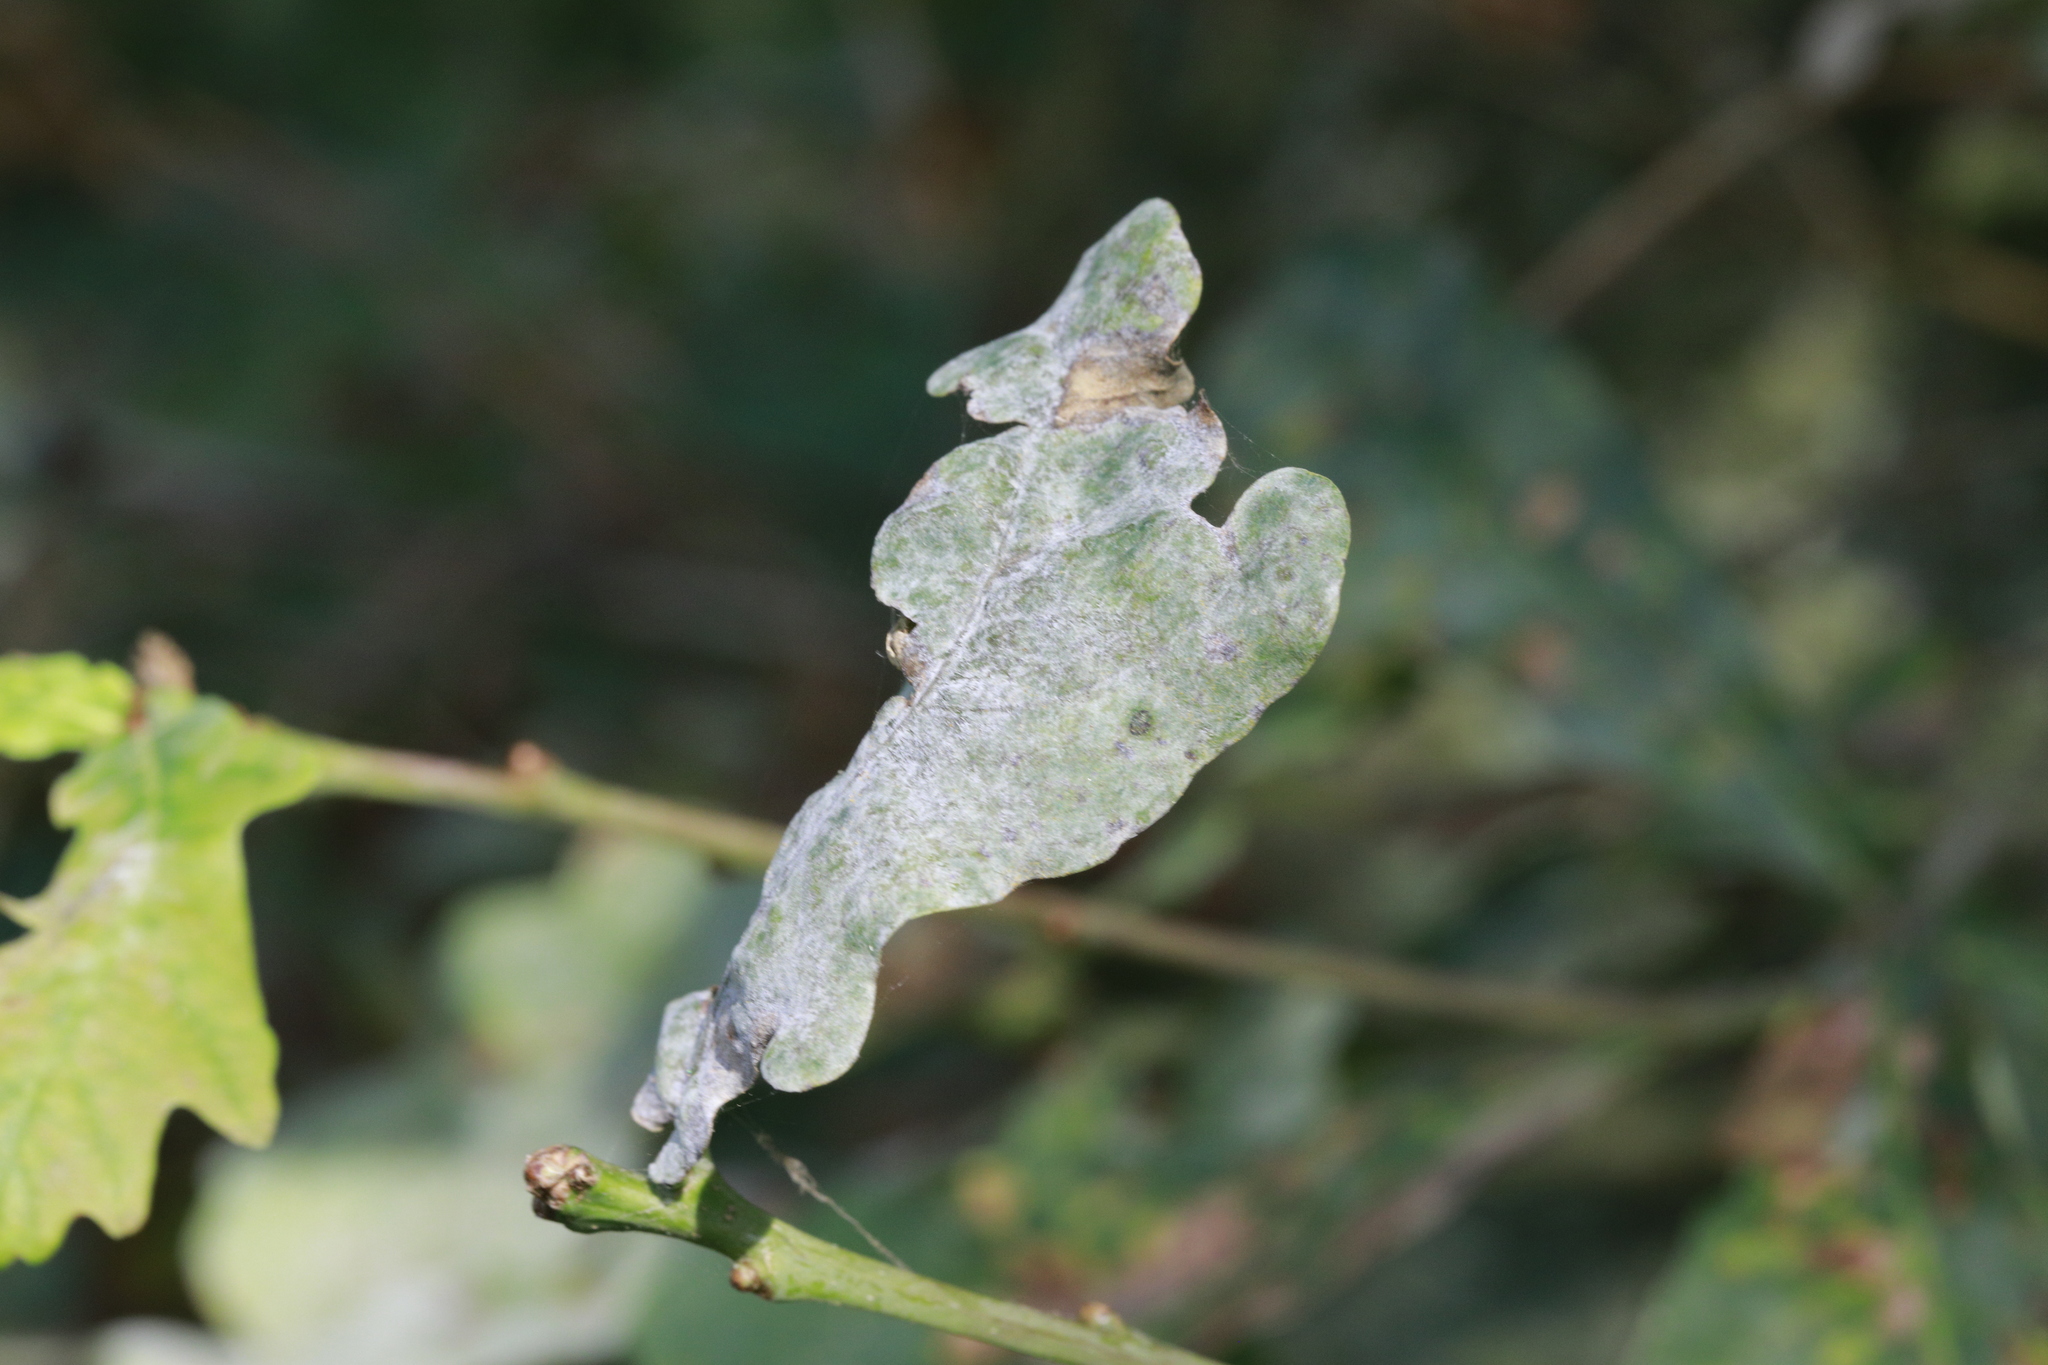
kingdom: Fungi
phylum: Ascomycota
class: Leotiomycetes
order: Helotiales
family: Erysiphaceae
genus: Erysiphe
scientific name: Erysiphe alphitoides
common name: Oak mildew
